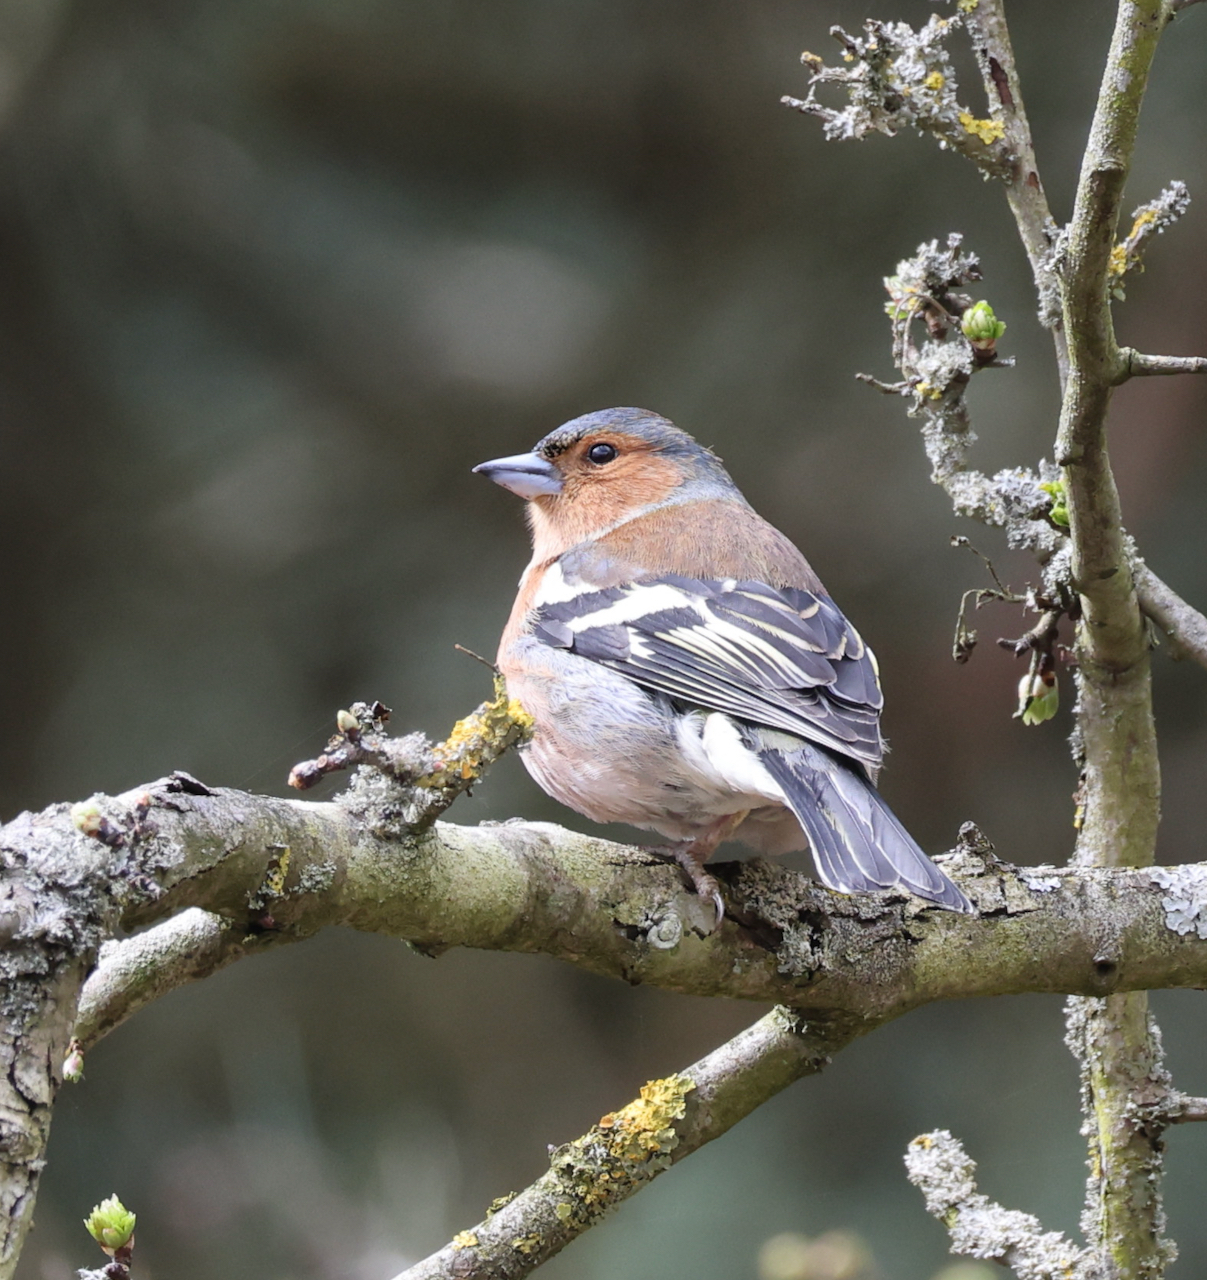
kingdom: Animalia
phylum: Chordata
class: Aves
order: Passeriformes
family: Fringillidae
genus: Fringilla
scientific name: Fringilla coelebs
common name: Common chaffinch
